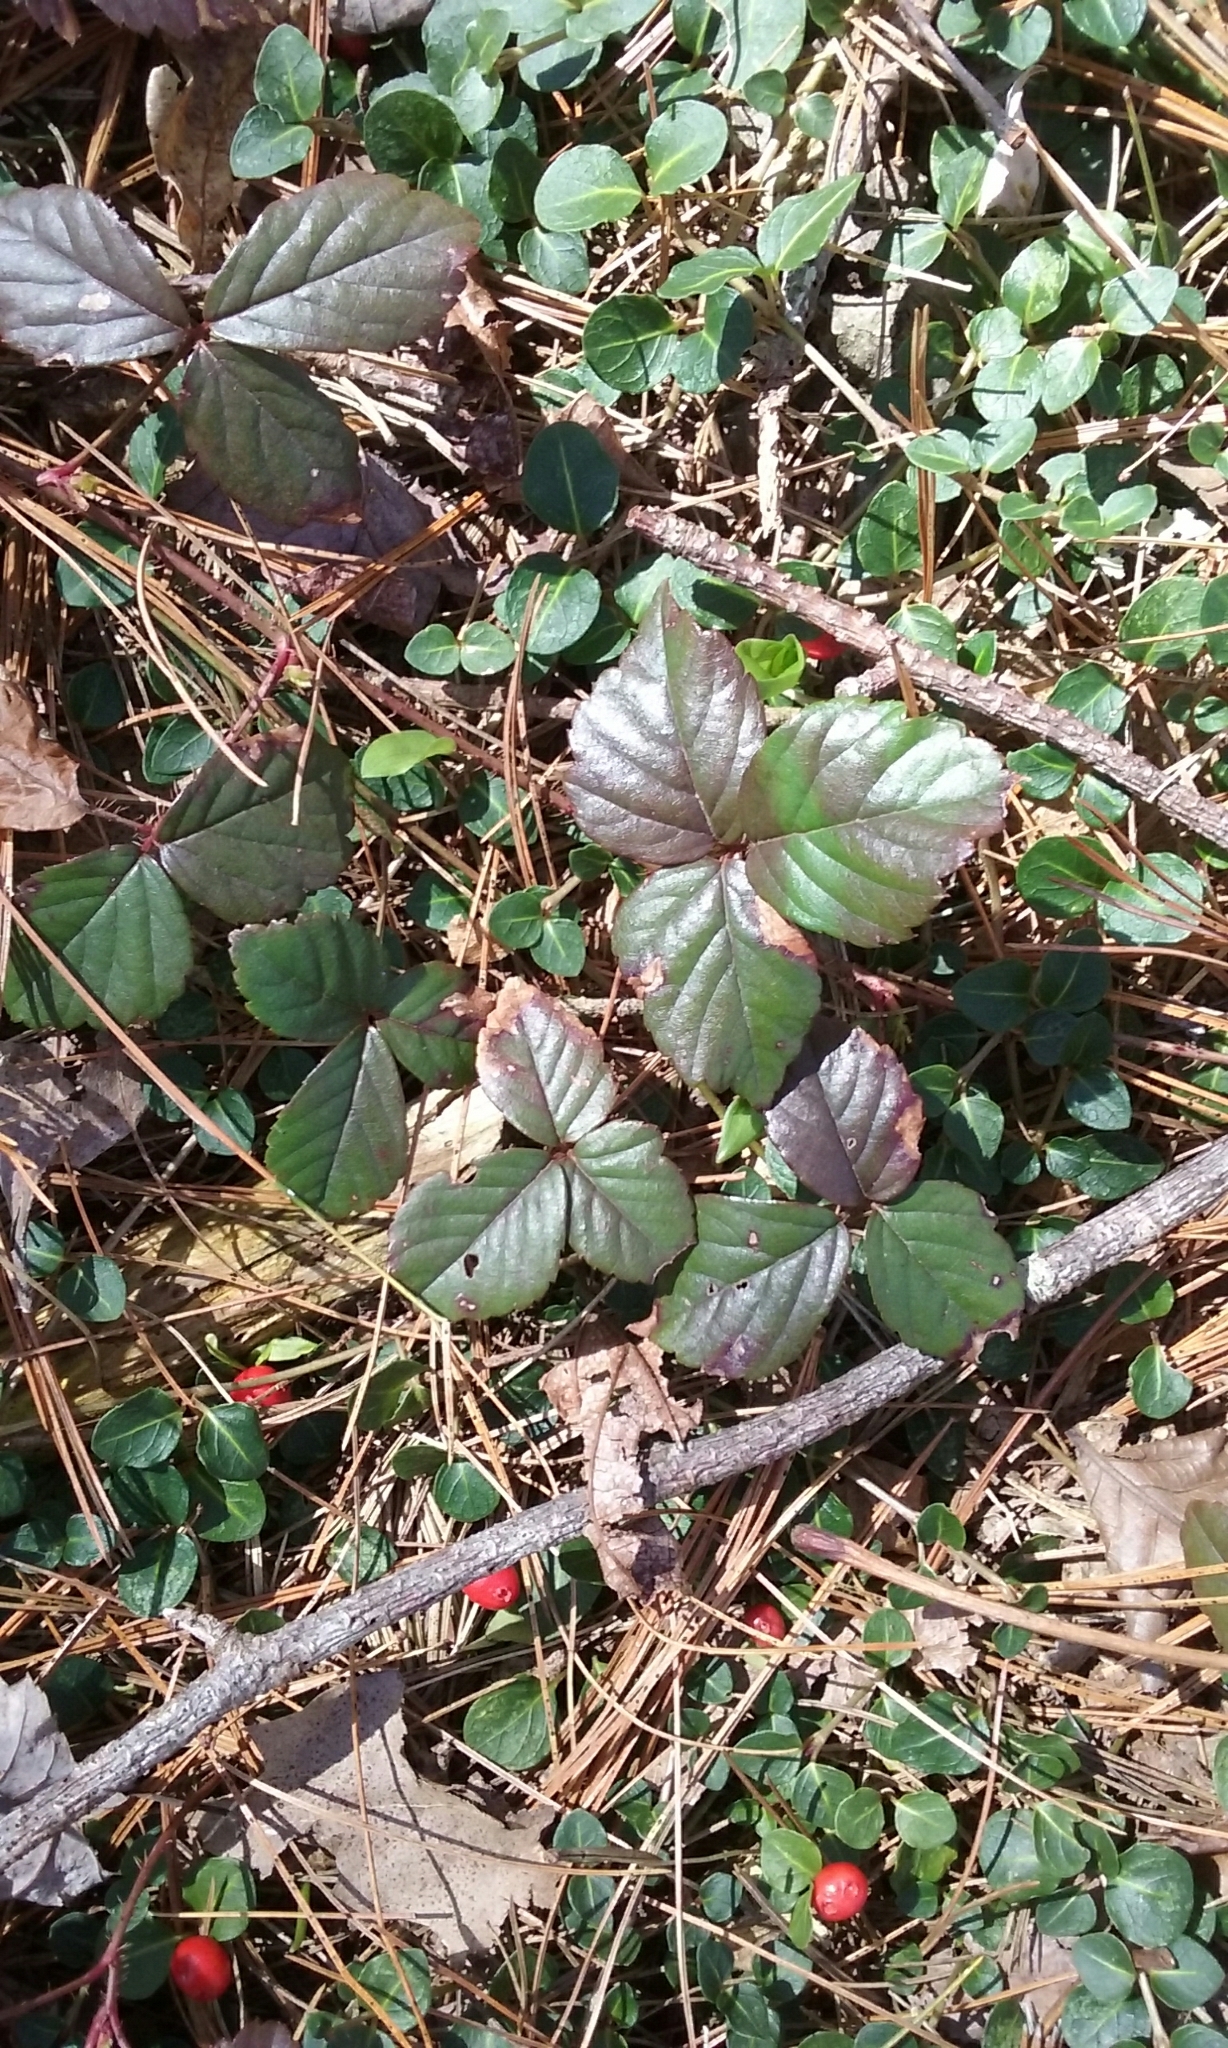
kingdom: Plantae
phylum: Tracheophyta
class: Magnoliopsida
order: Rosales
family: Rosaceae
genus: Rubus
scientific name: Rubus flagellaris
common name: American dewberry
